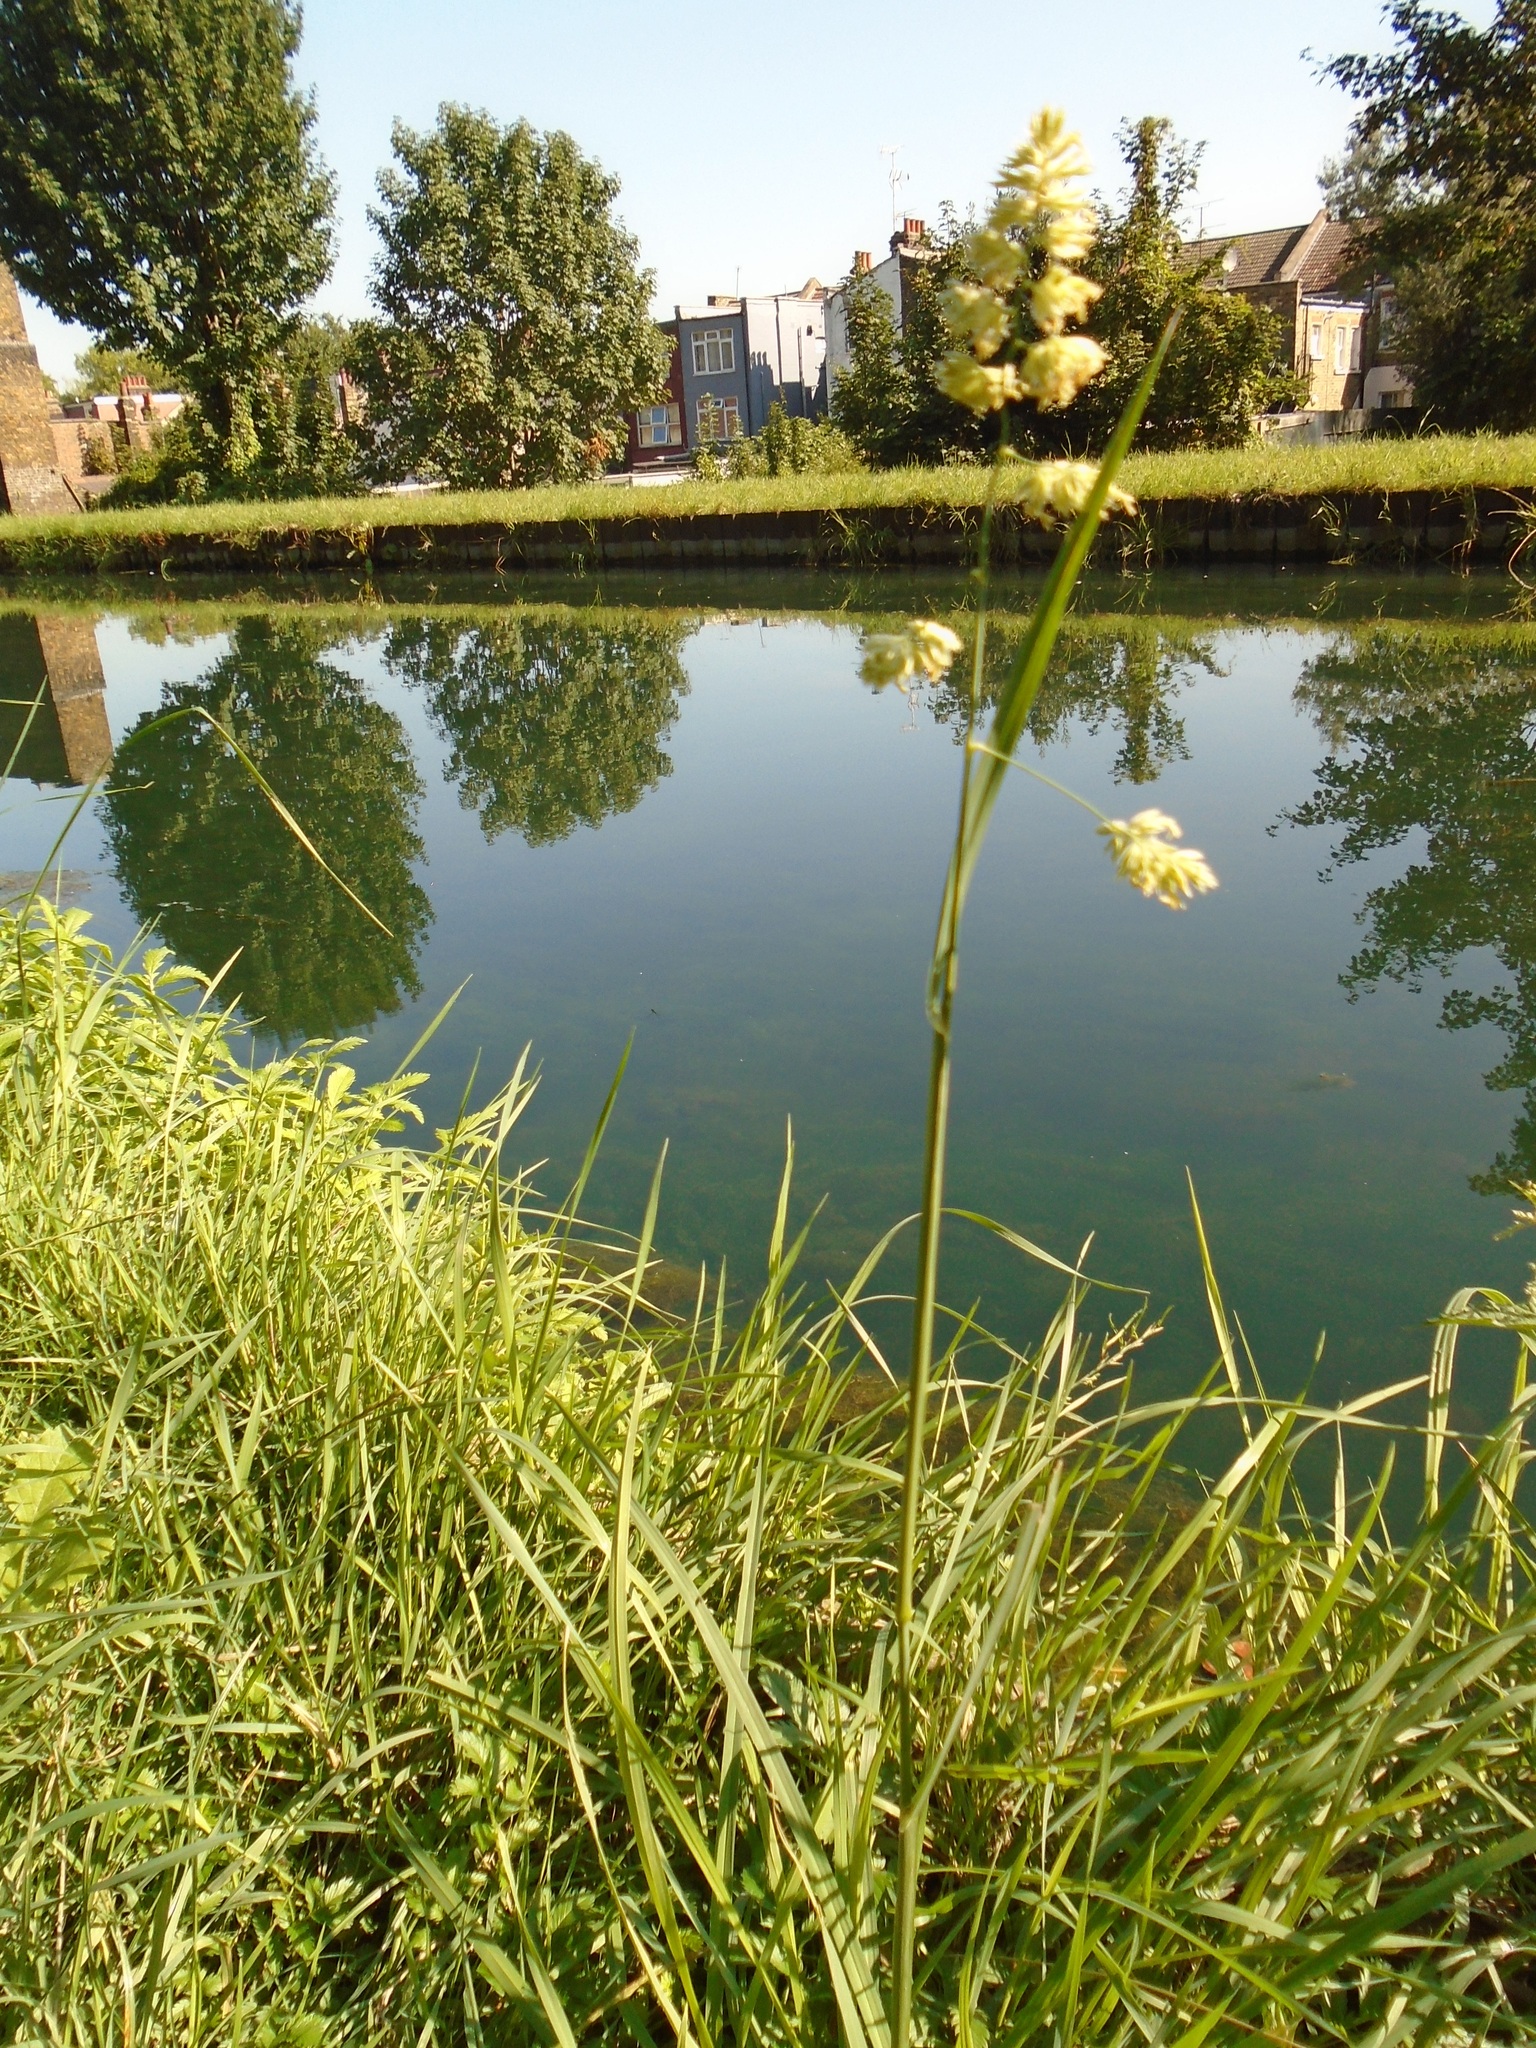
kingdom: Plantae
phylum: Tracheophyta
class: Liliopsida
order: Poales
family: Poaceae
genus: Dactylis
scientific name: Dactylis glomerata
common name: Orchardgrass
